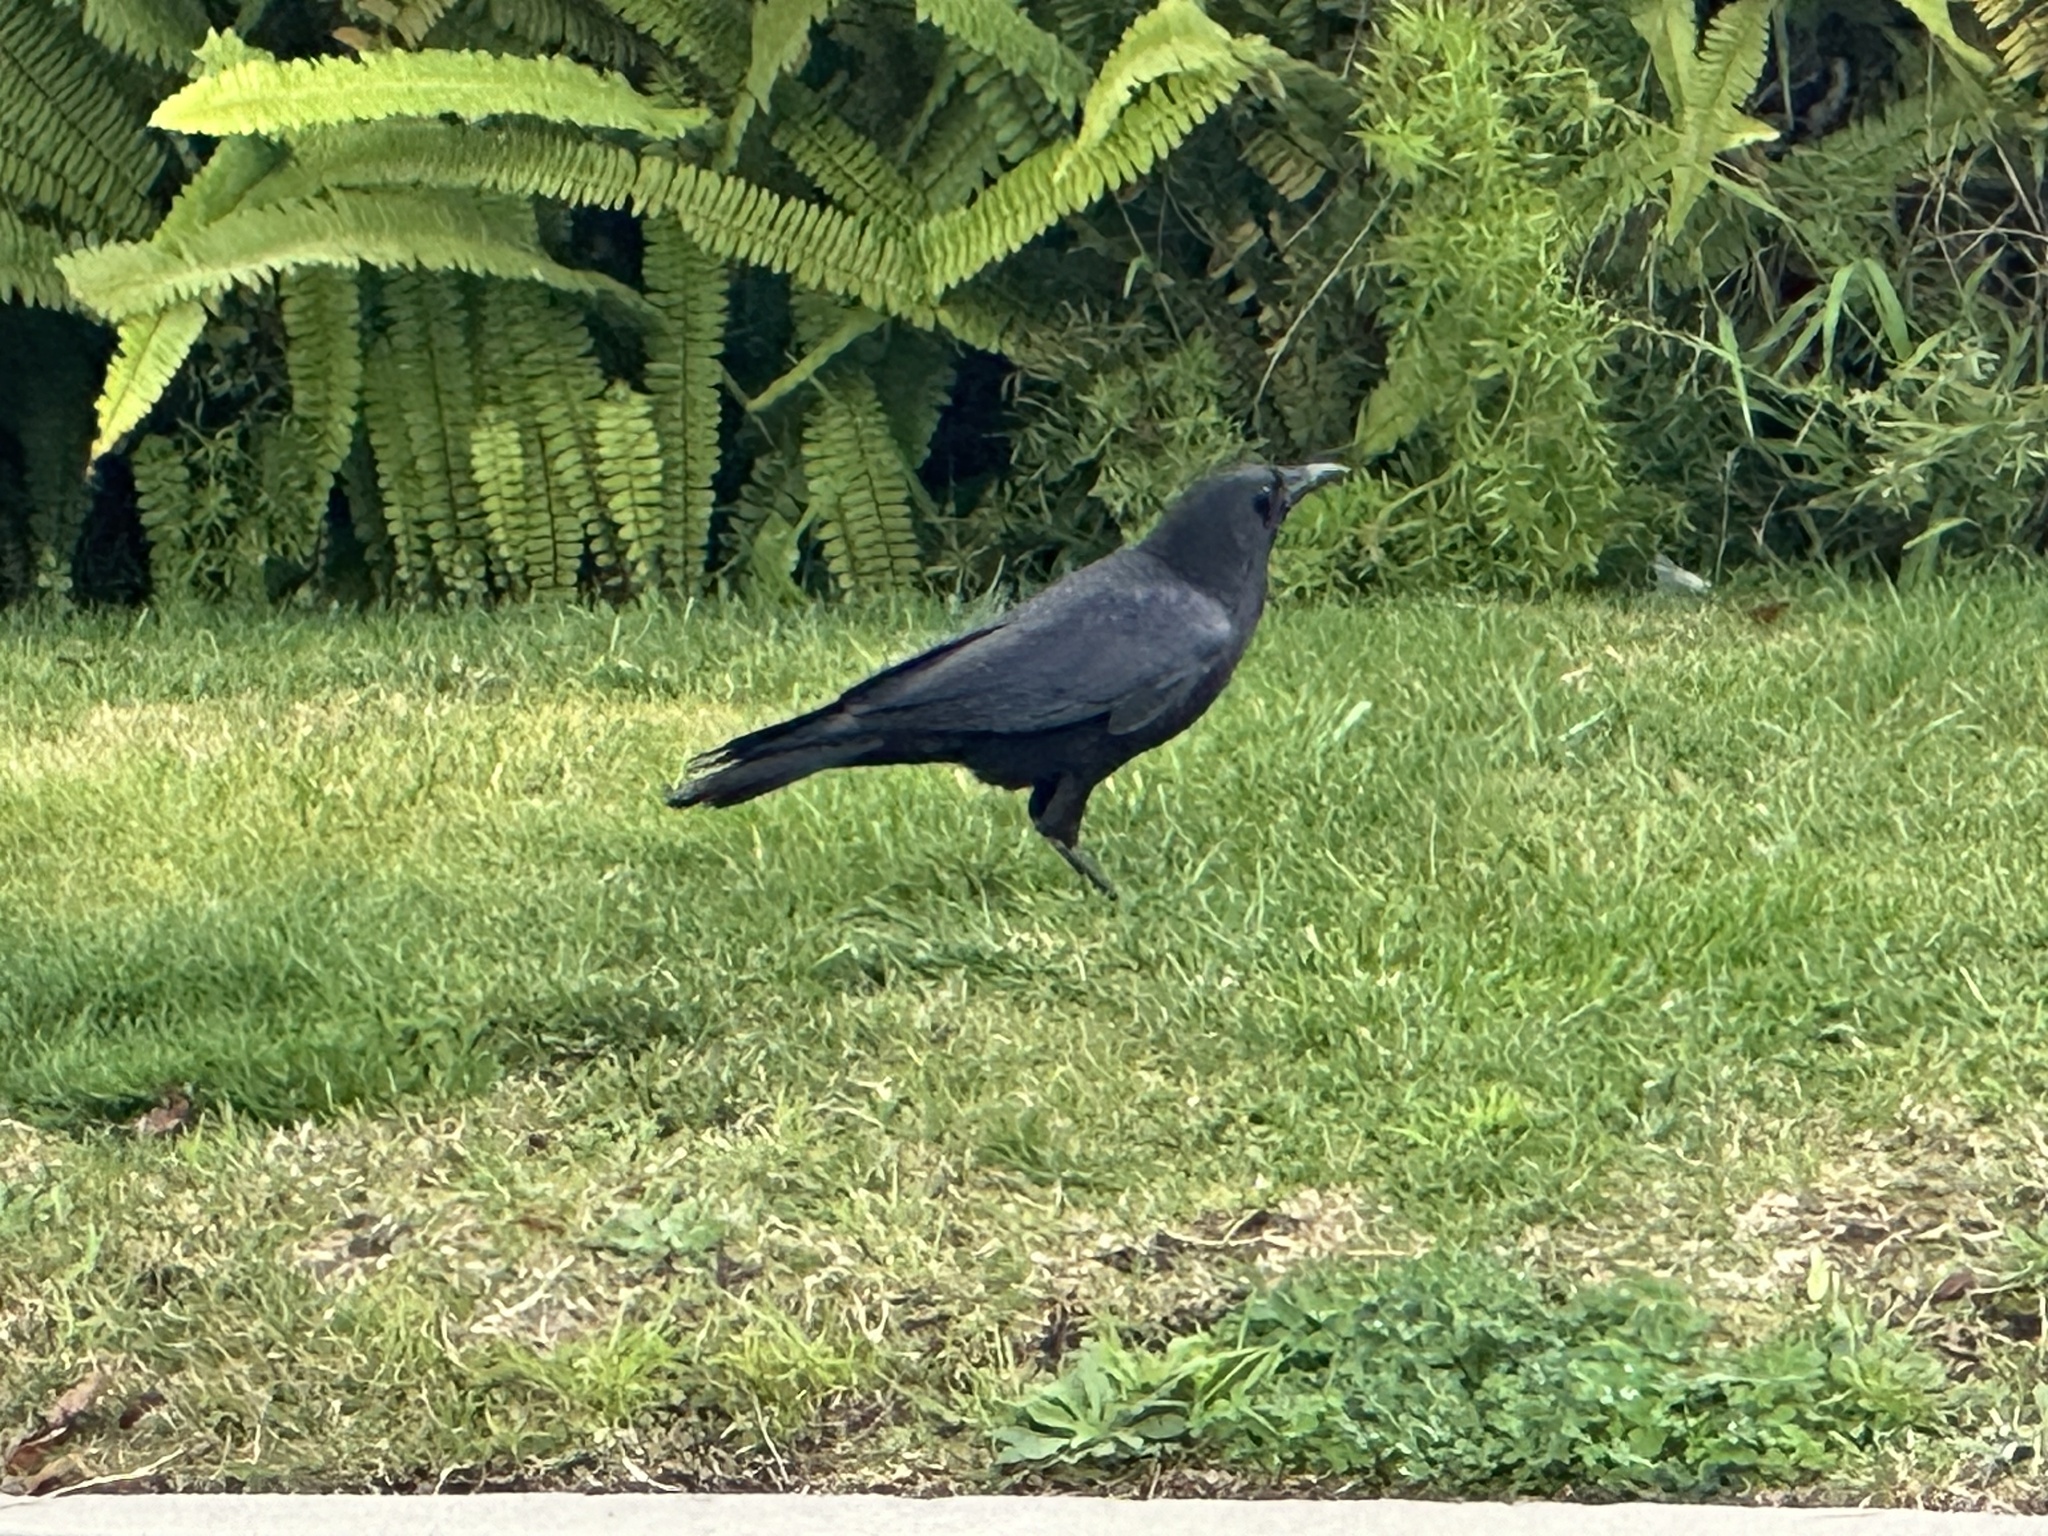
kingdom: Animalia
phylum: Chordata
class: Aves
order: Passeriformes
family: Corvidae
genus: Corvus
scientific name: Corvus brachyrhynchos
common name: American crow
